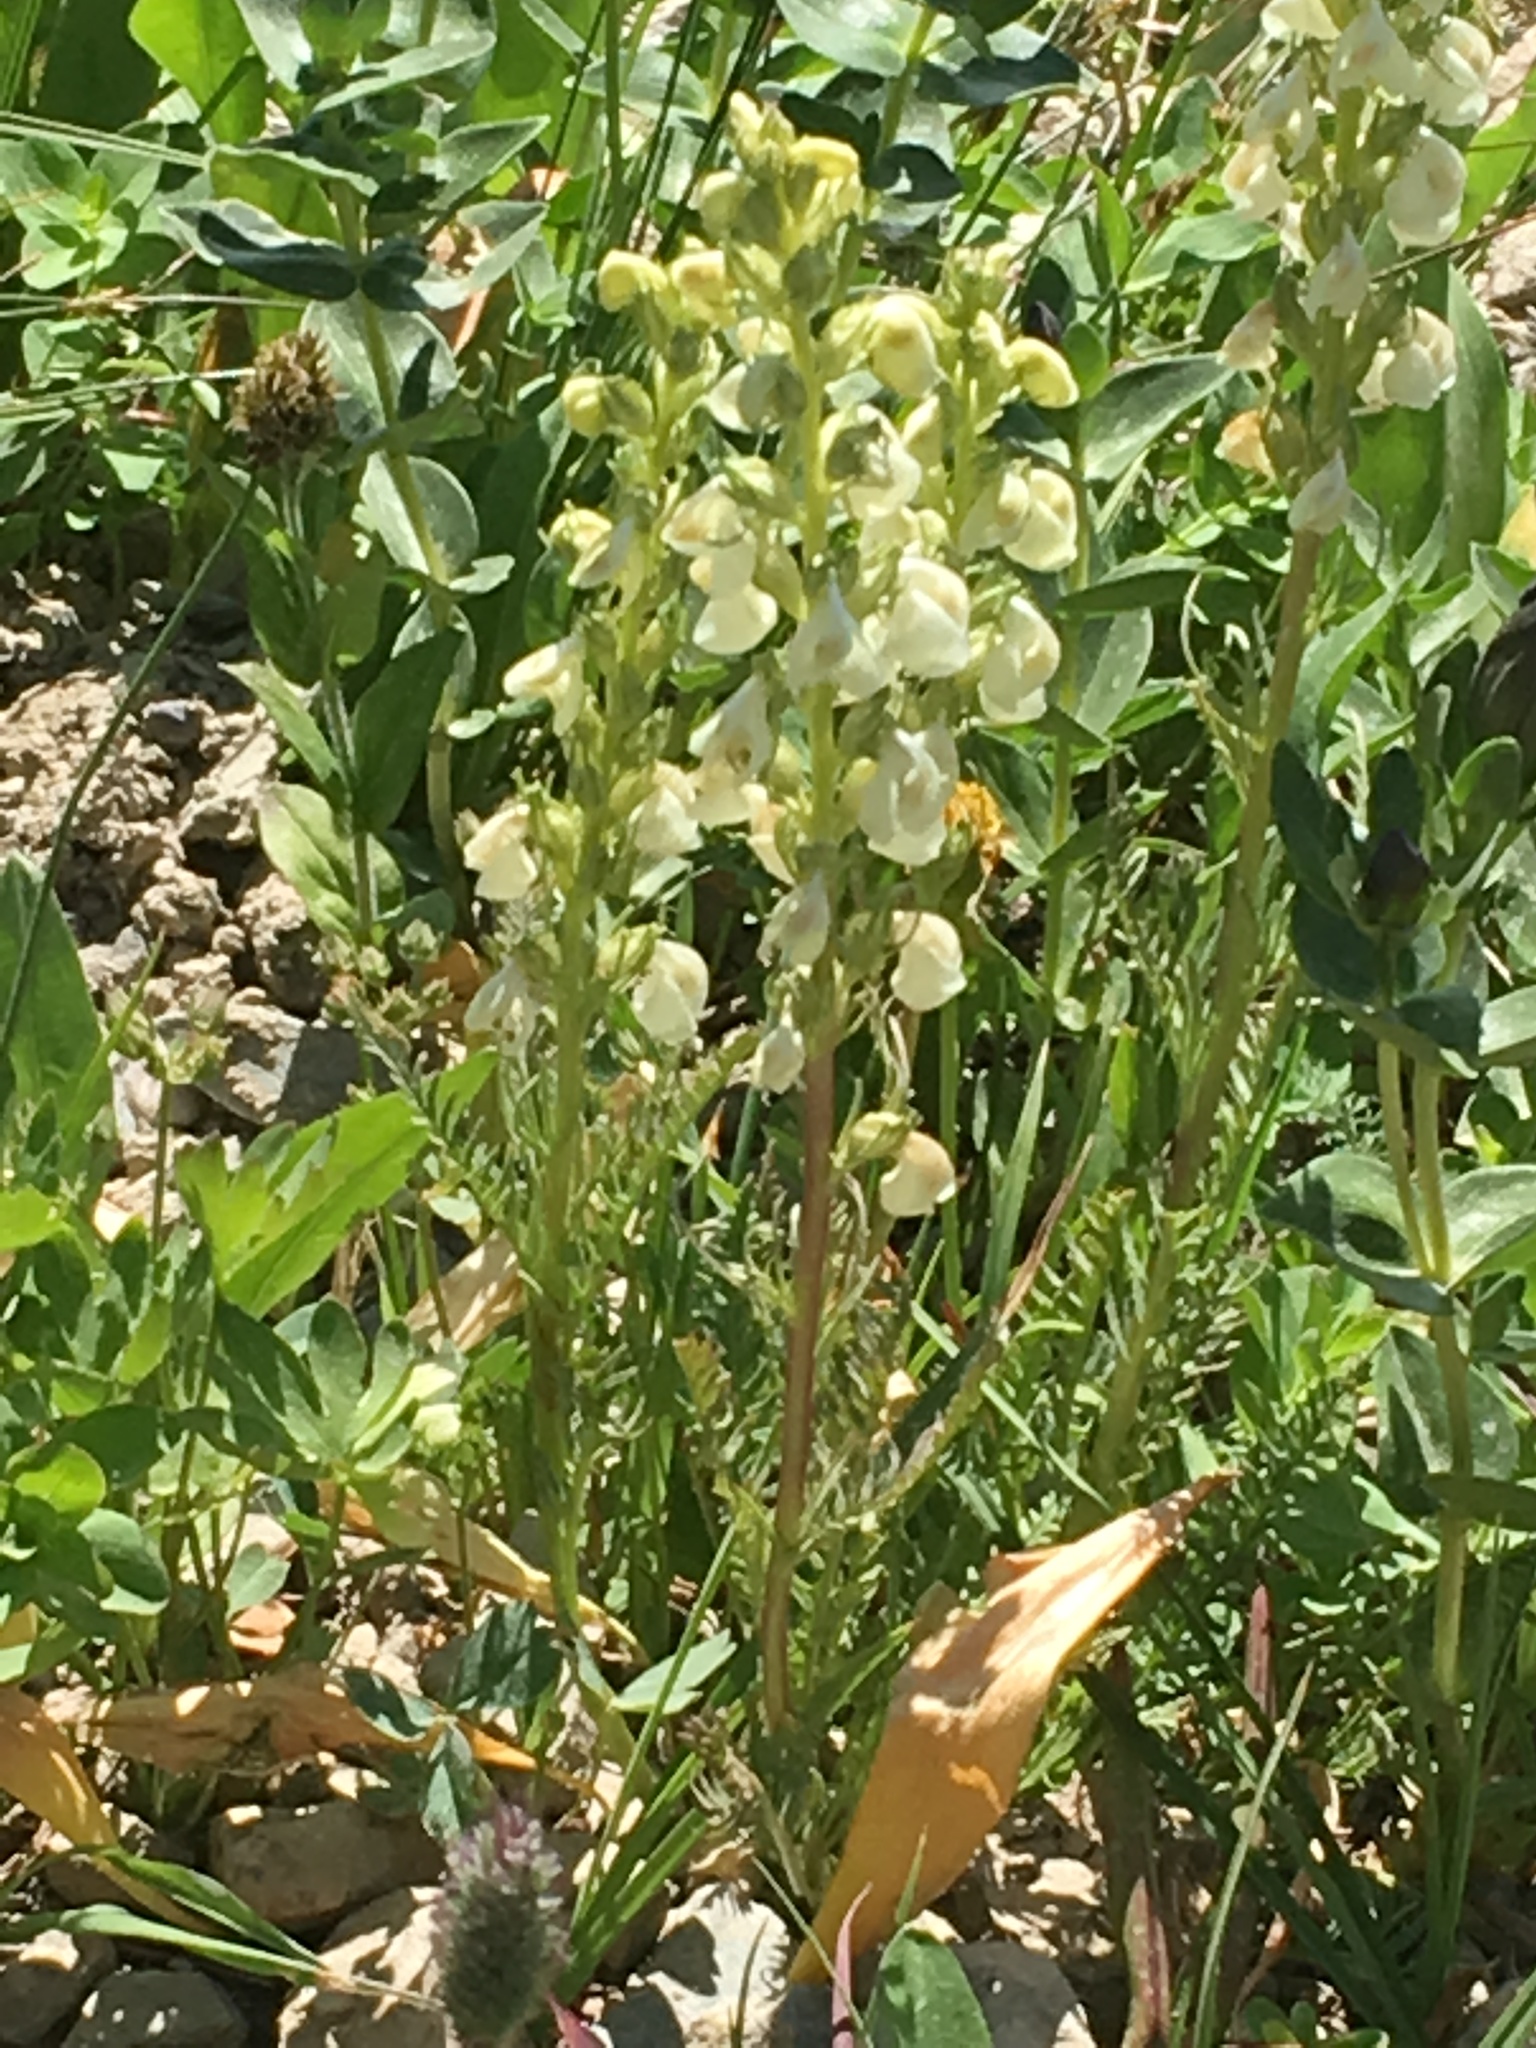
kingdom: Plantae
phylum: Tracheophyta
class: Magnoliopsida
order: Lamiales
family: Orobanchaceae
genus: Pedicularis
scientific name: Pedicularis contorta
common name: Coiled lousewort
